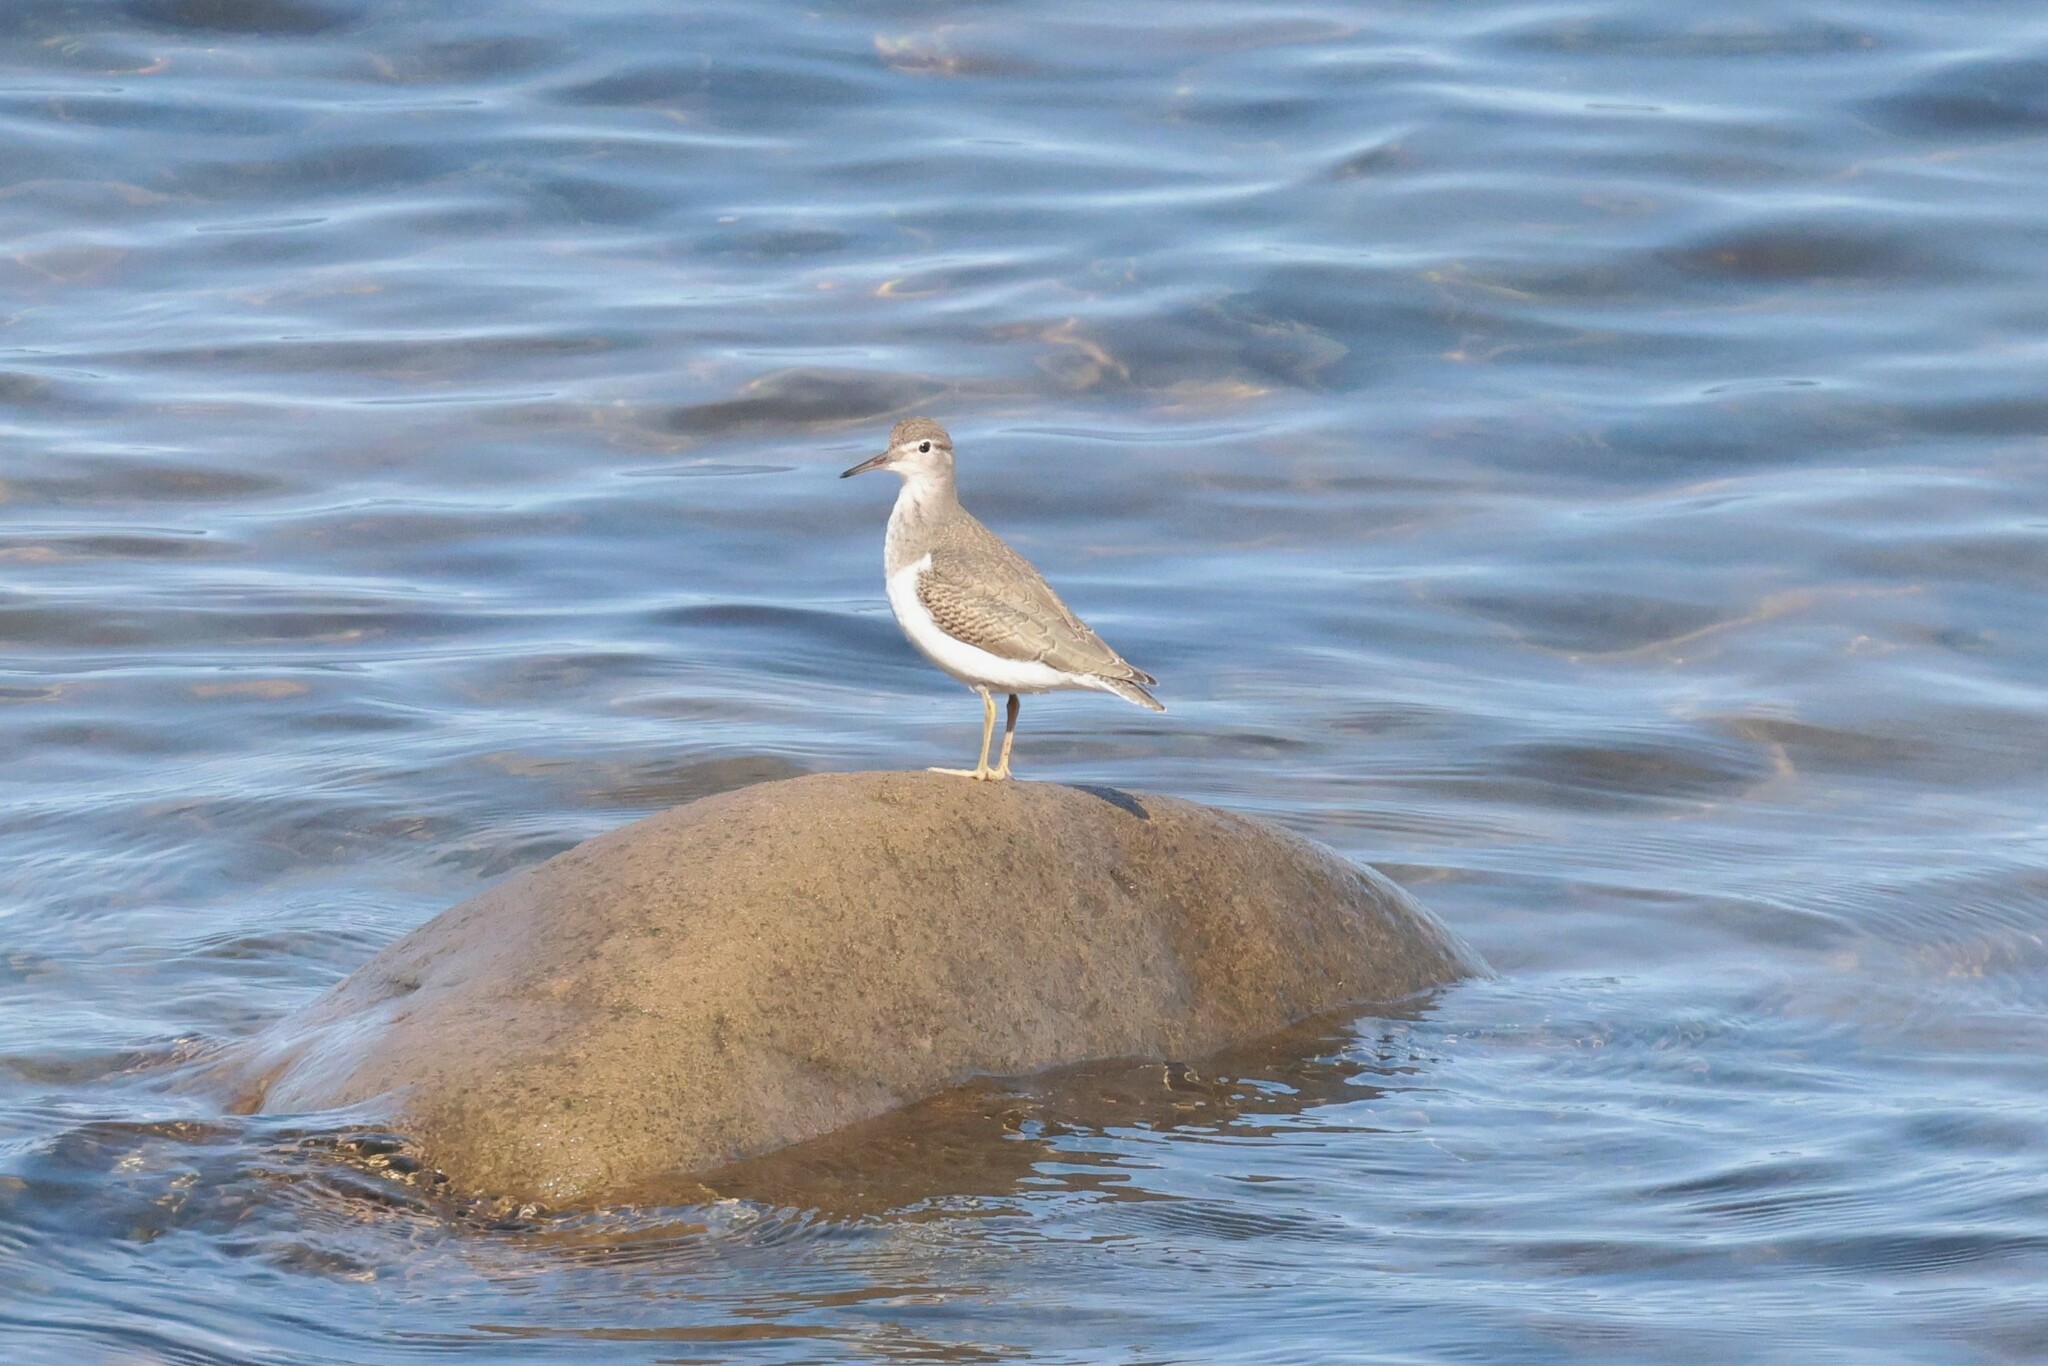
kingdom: Animalia
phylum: Chordata
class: Aves
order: Charadriiformes
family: Scolopacidae
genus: Actitis
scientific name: Actitis macularius
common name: Spotted sandpiper
